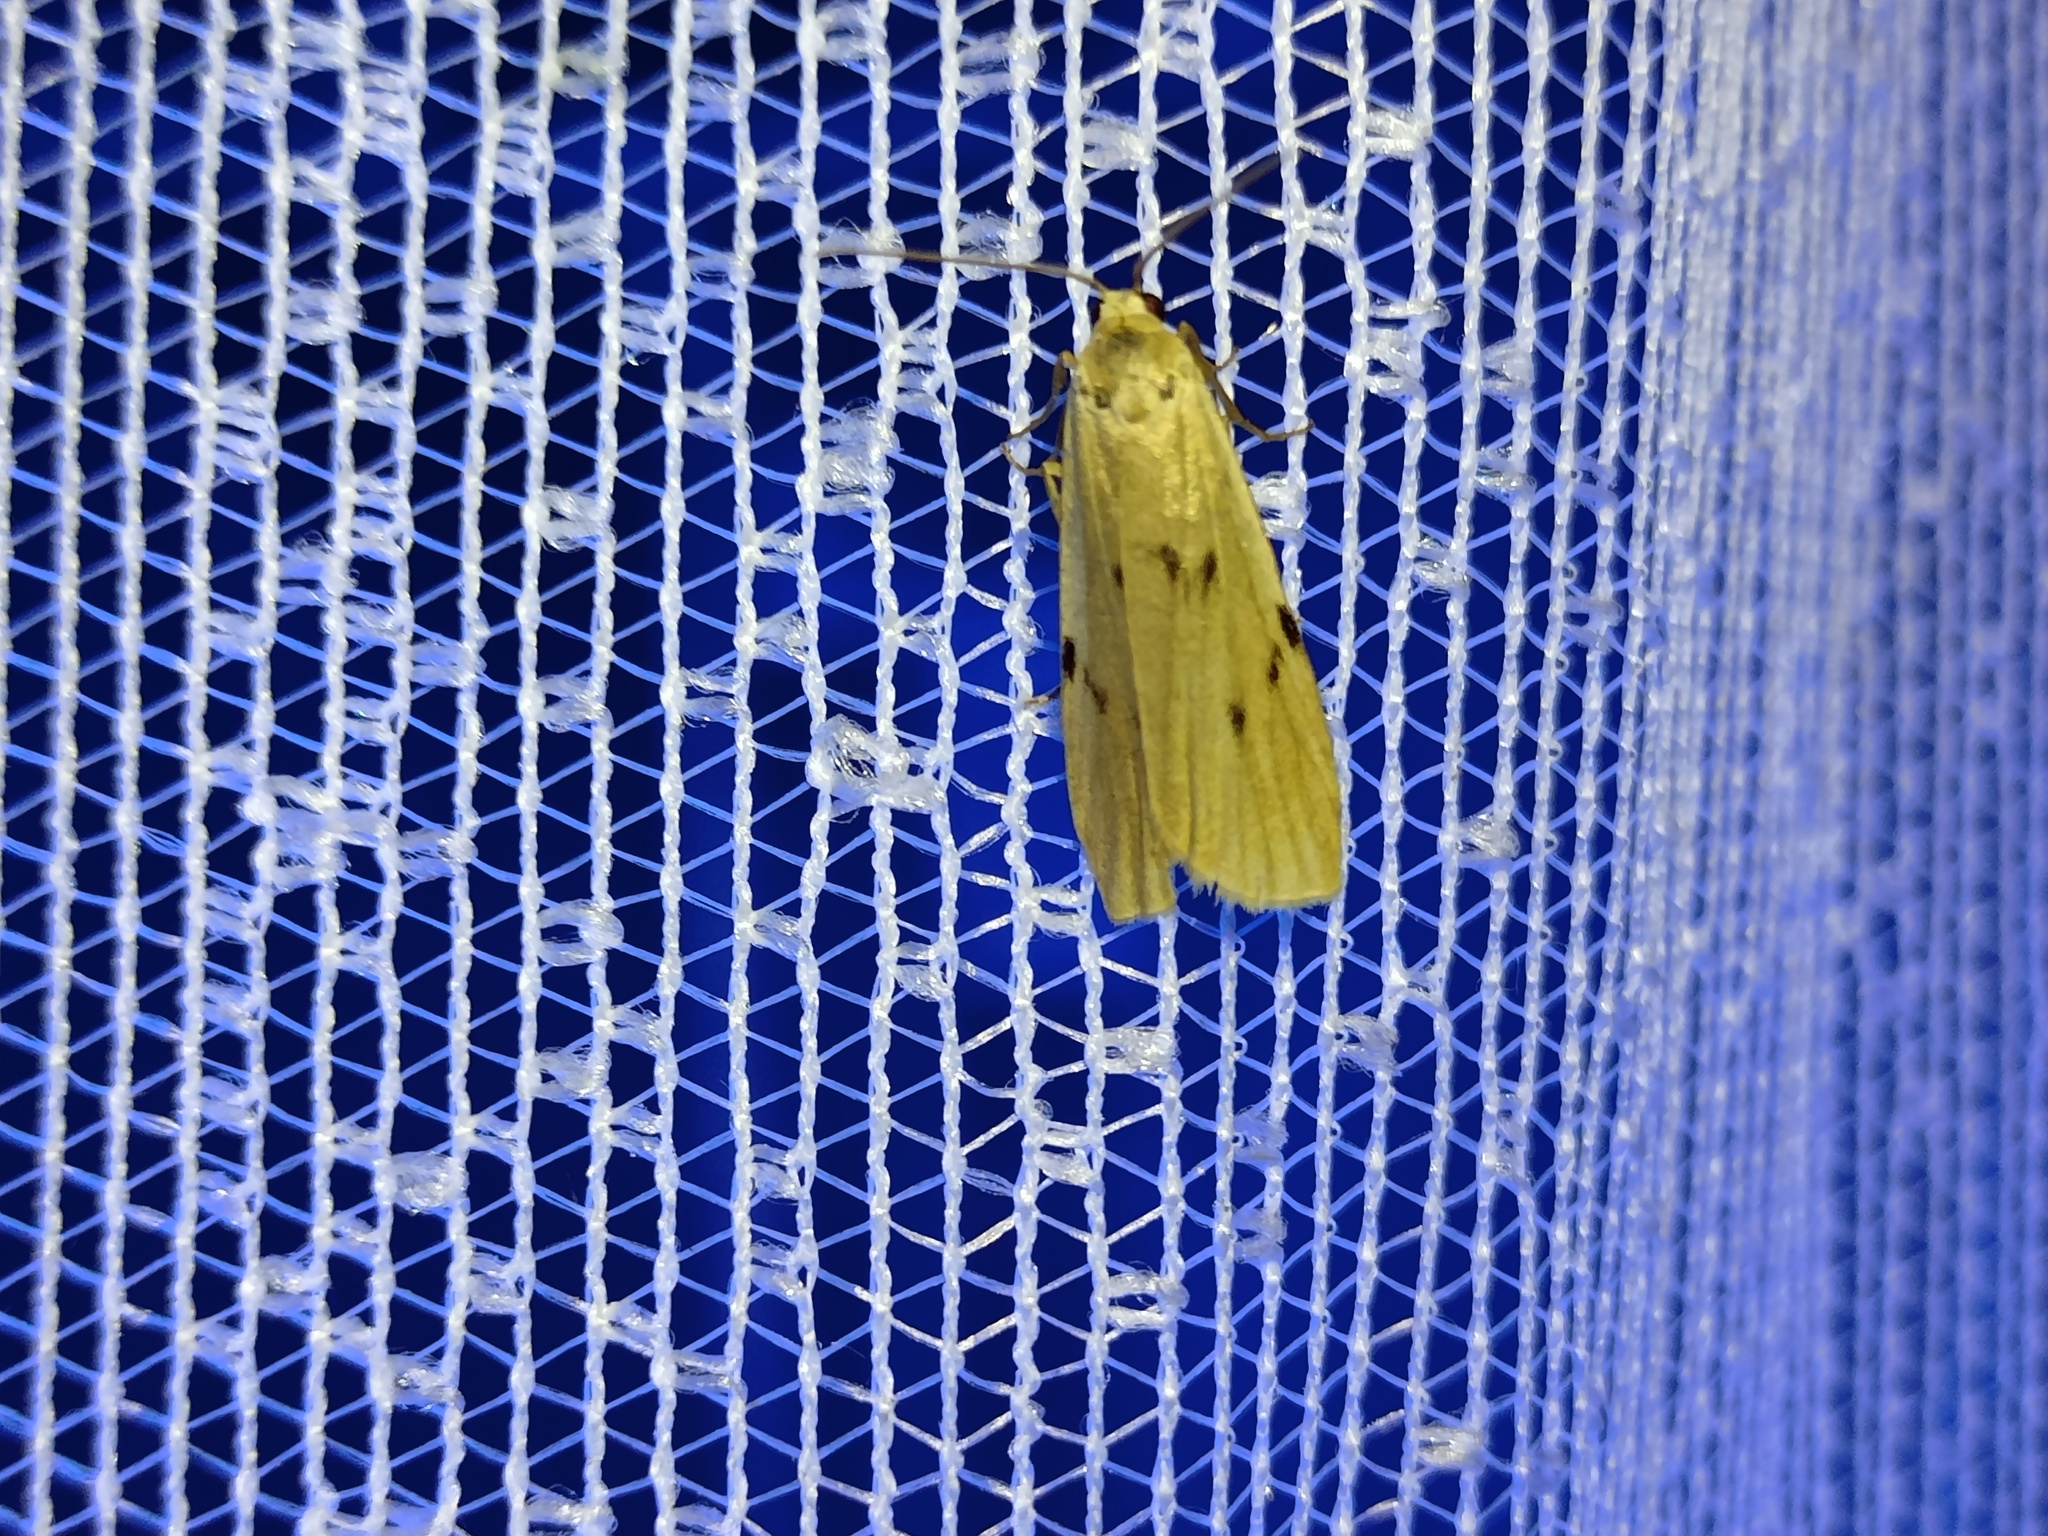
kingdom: Animalia
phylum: Arthropoda
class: Insecta
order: Lepidoptera
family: Erebidae
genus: Pelosia
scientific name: Pelosia muscerda
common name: Dotted footman
